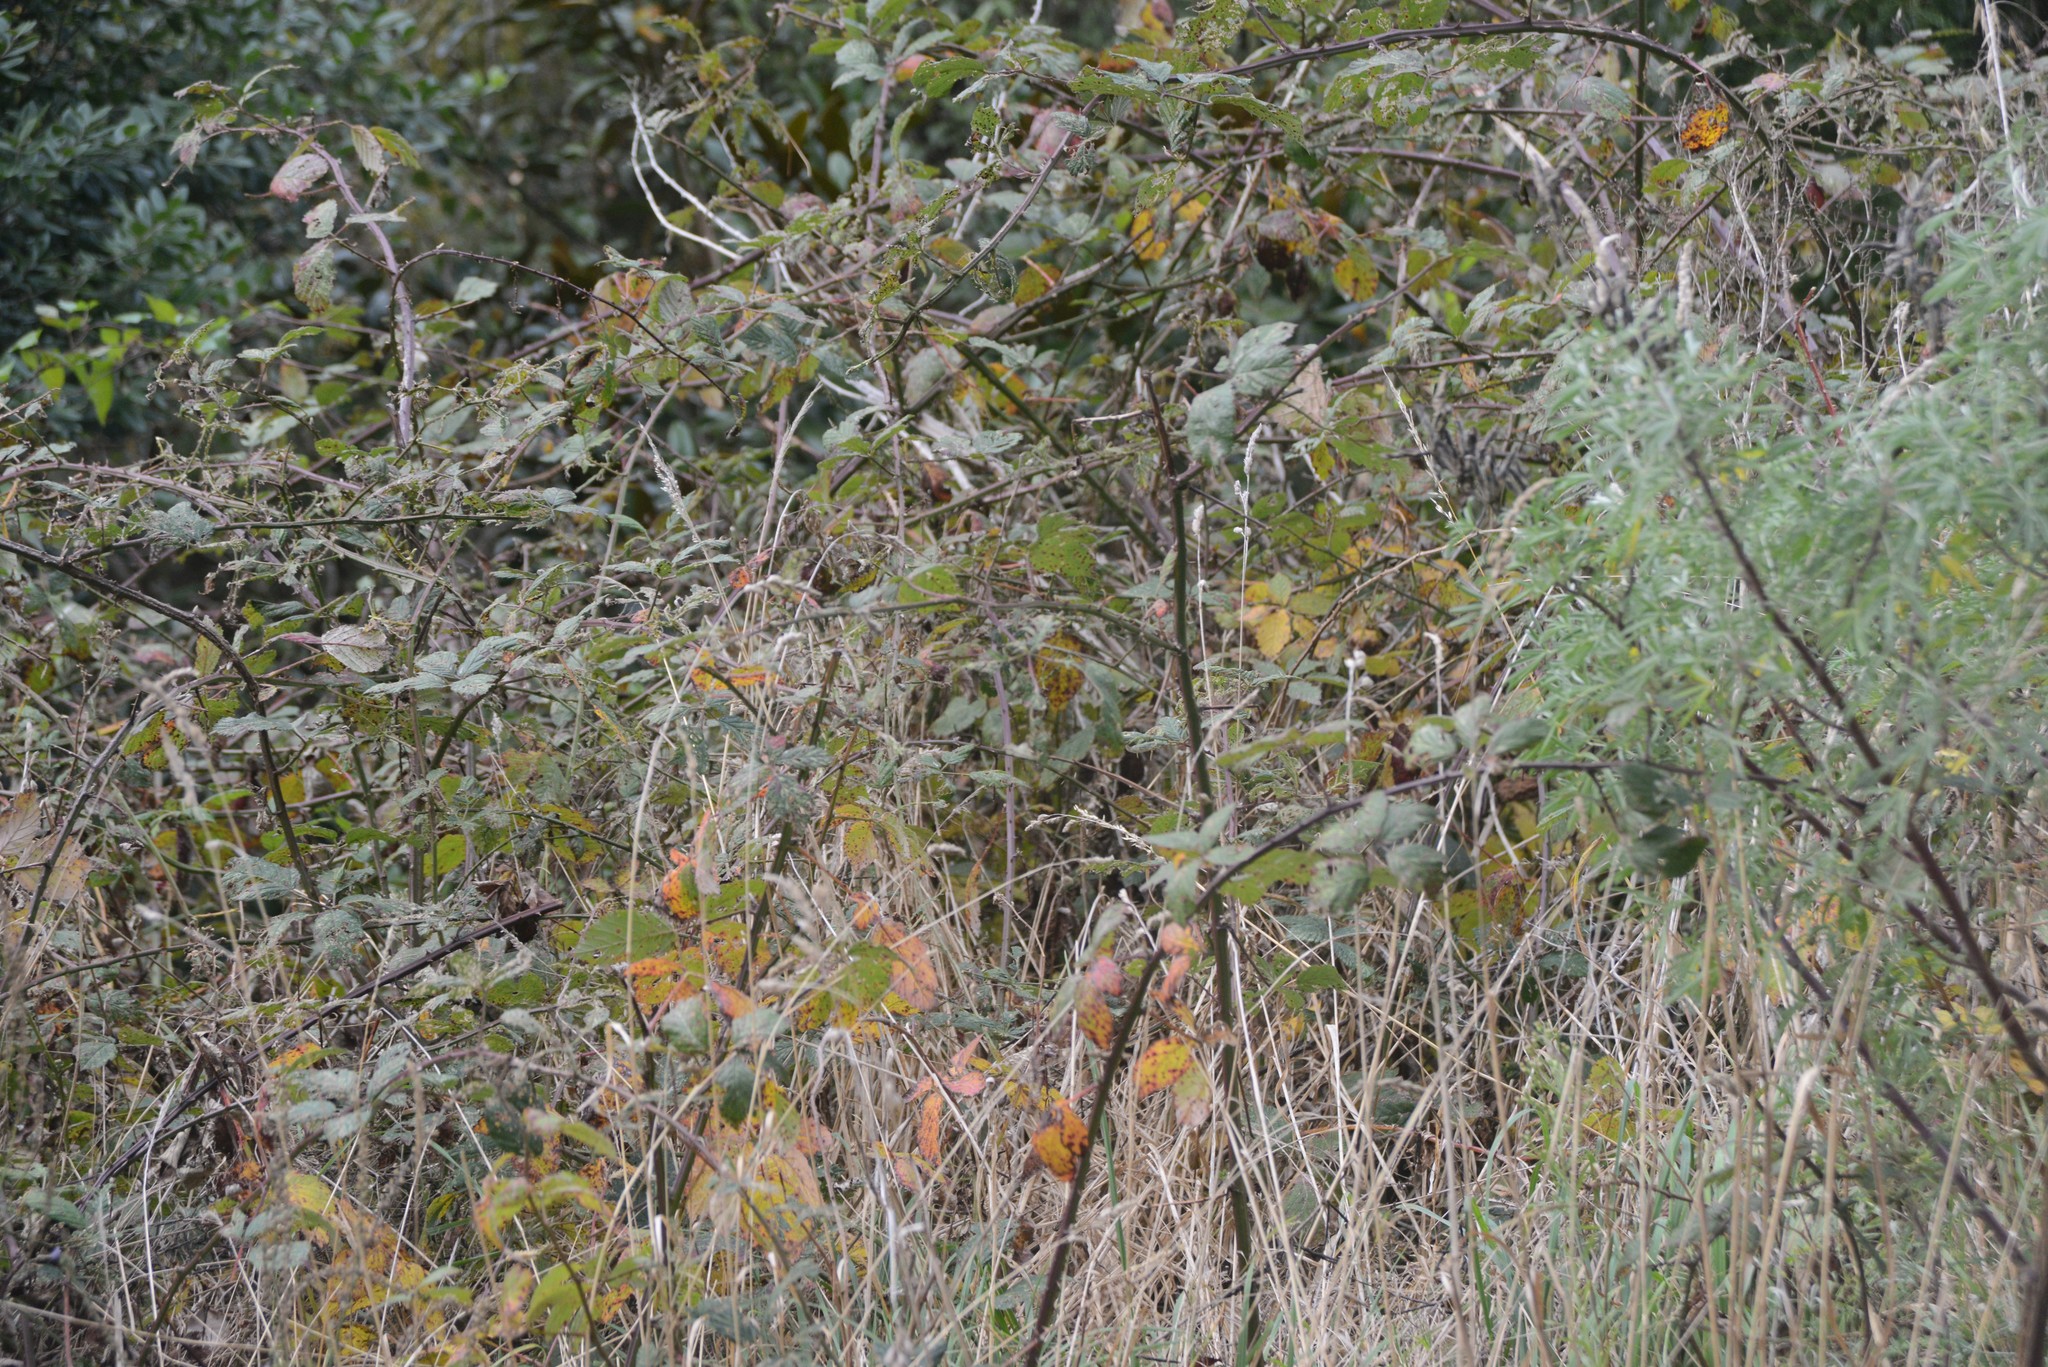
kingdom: Plantae
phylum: Tracheophyta
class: Magnoliopsida
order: Rosales
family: Rosaceae
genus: Rubus
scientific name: Rubus
